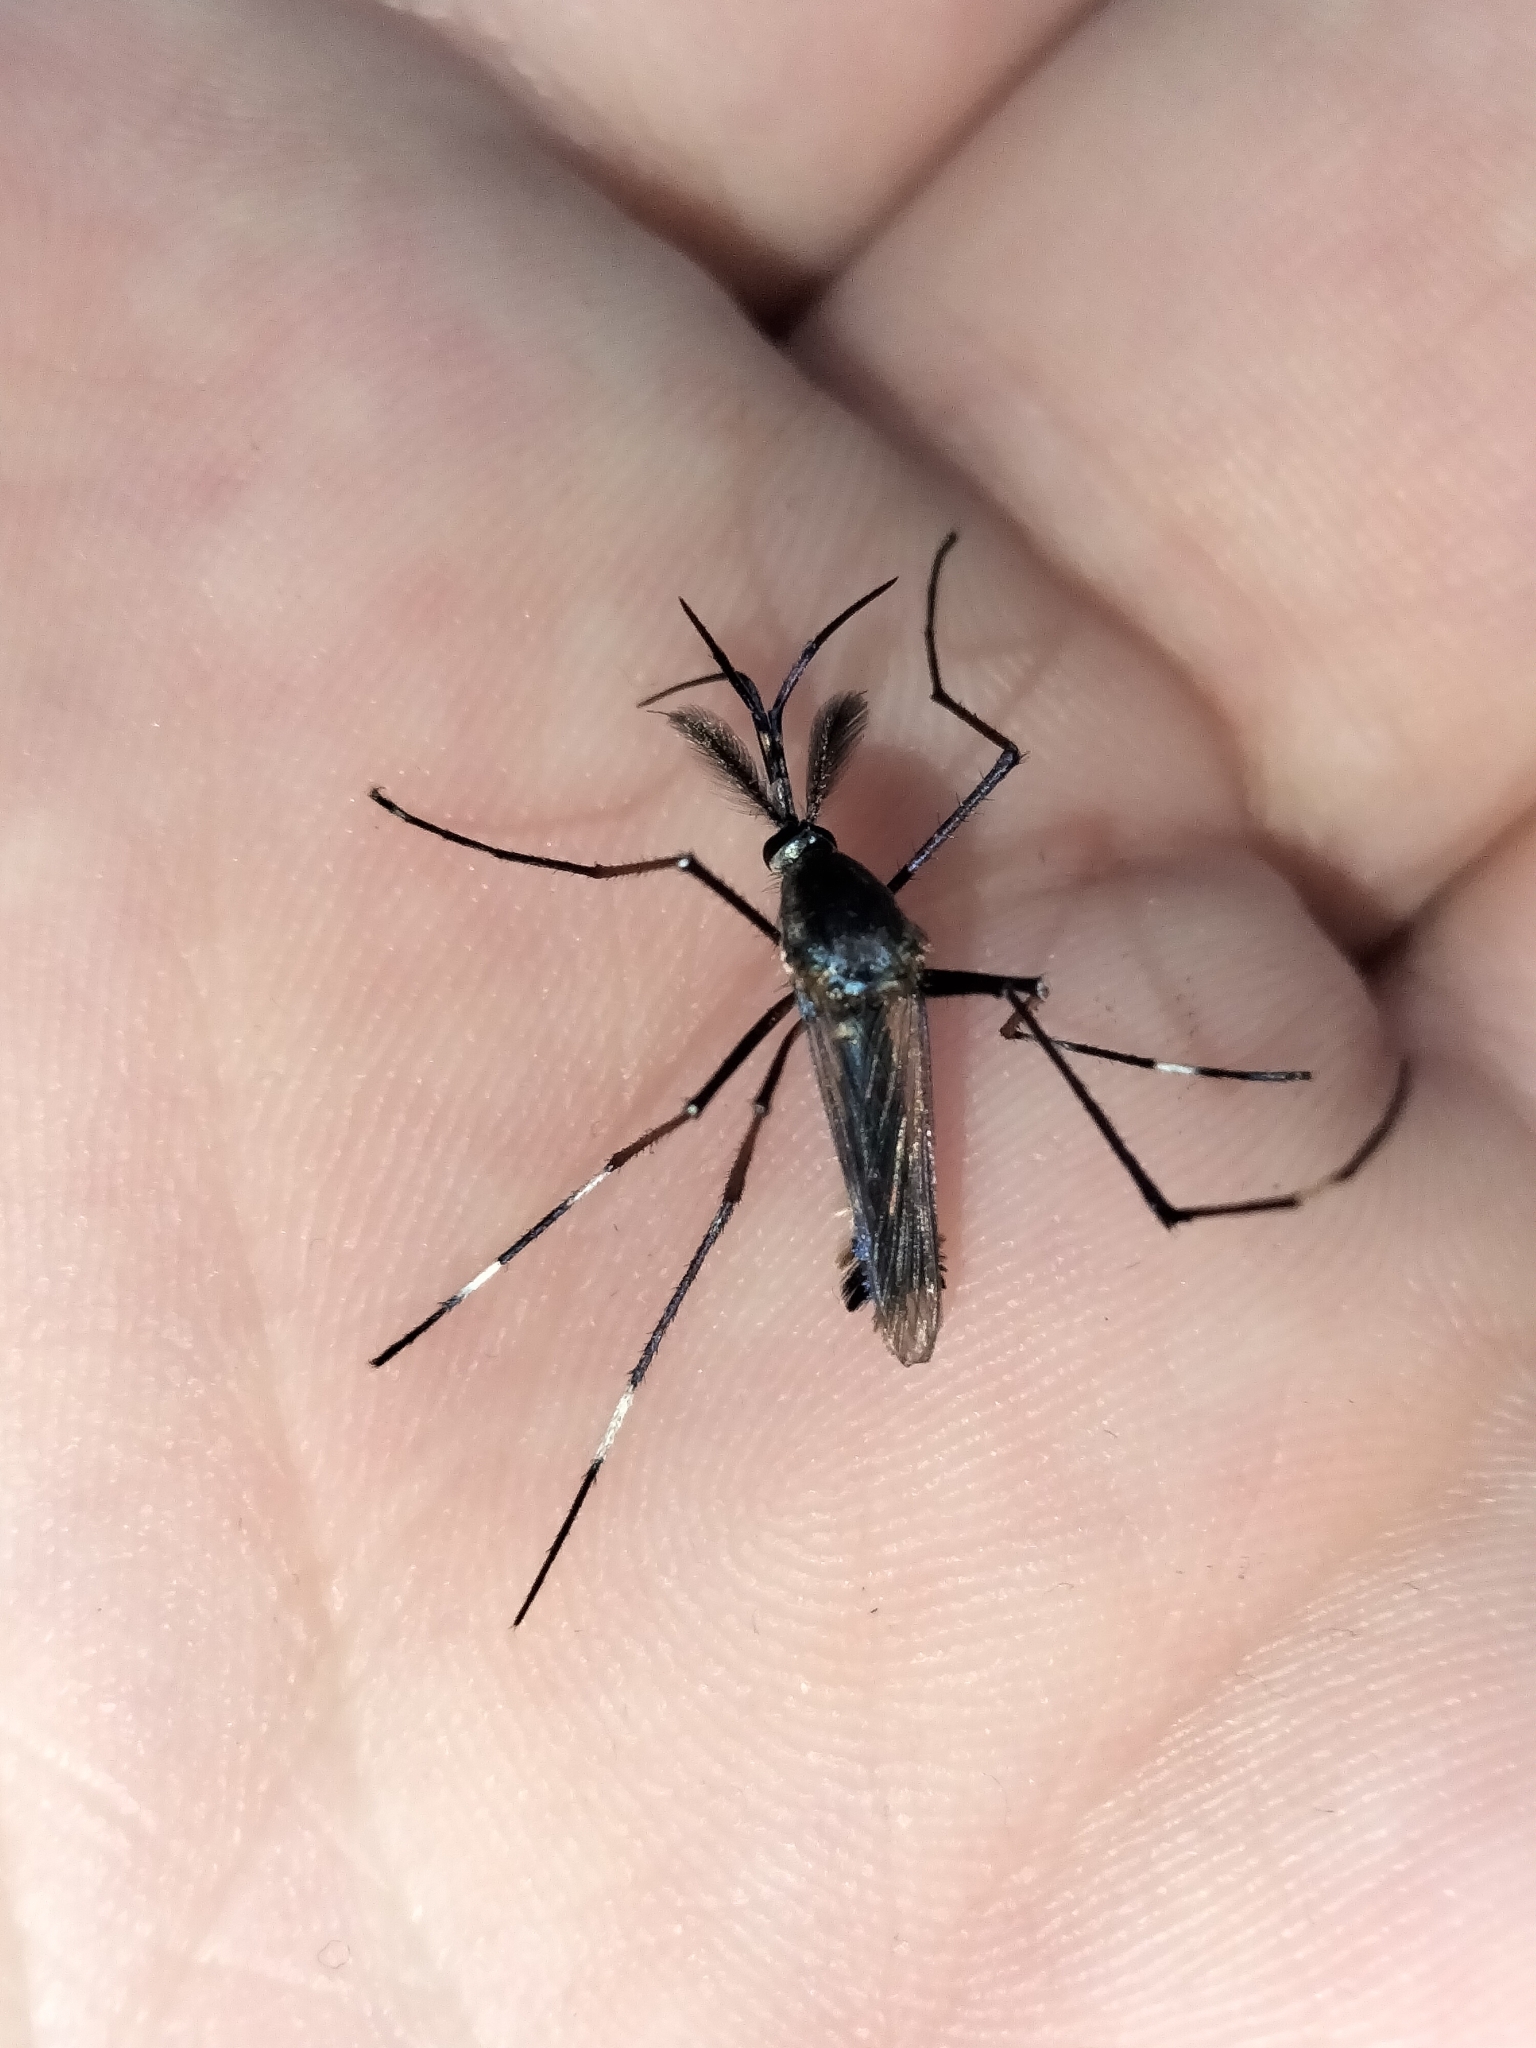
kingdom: Animalia
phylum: Arthropoda
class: Insecta
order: Diptera
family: Culicidae
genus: Toxorhynchites
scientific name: Toxorhynchites speciosus
